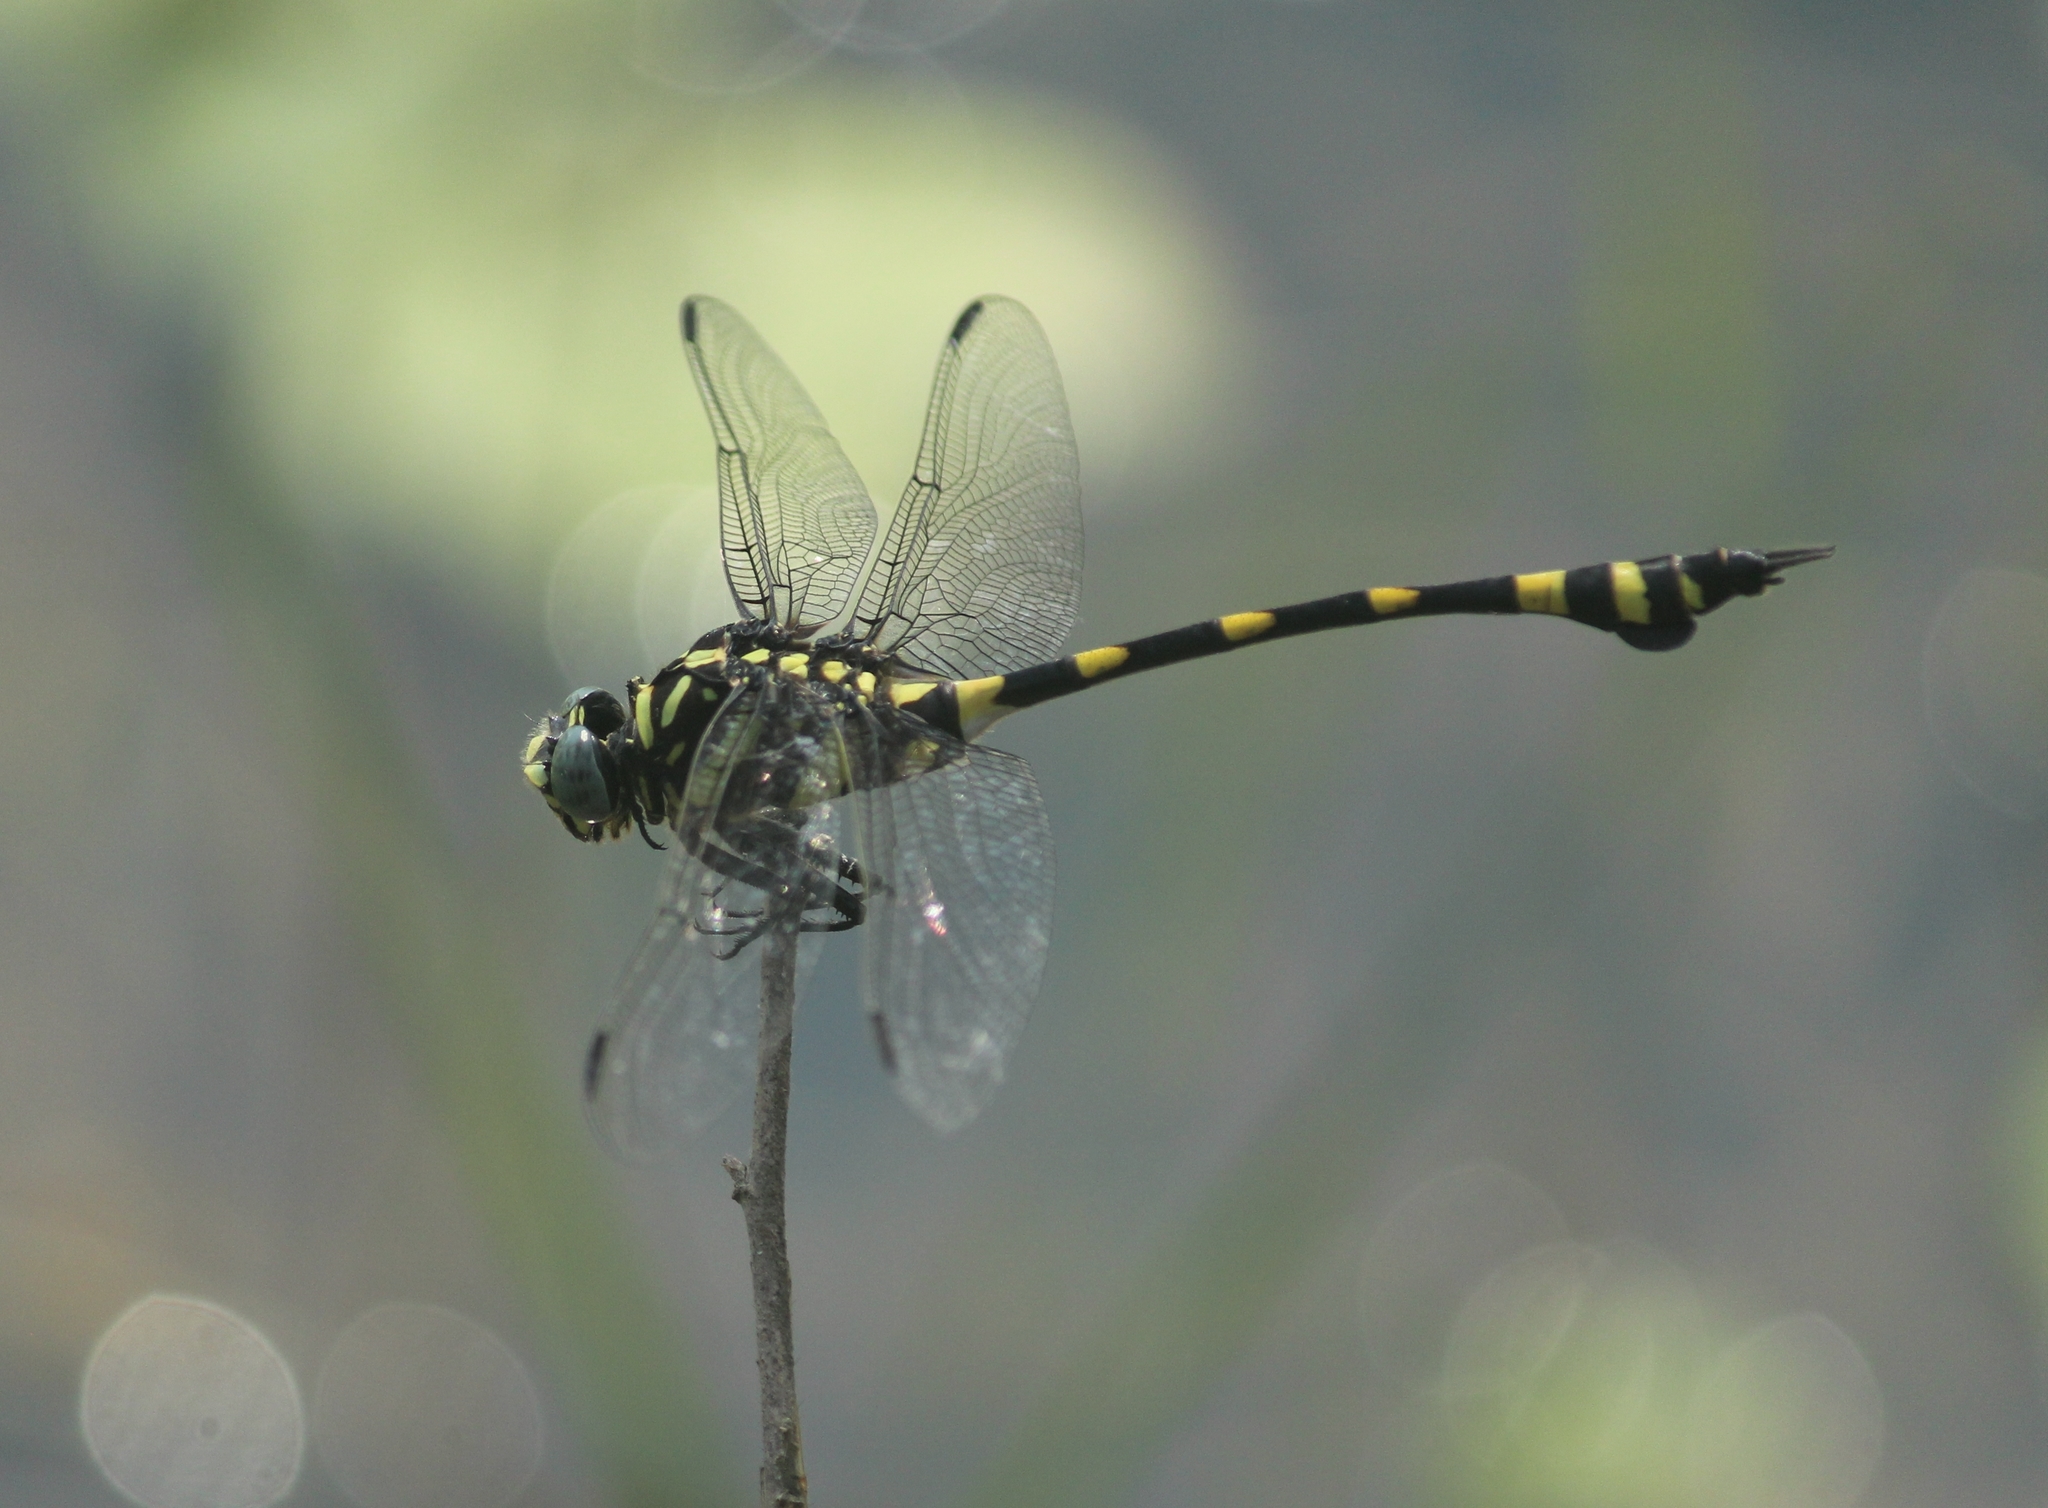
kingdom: Animalia
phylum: Arthropoda
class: Insecta
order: Odonata
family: Gomphidae
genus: Ictinogomphus
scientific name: Ictinogomphus rapax
